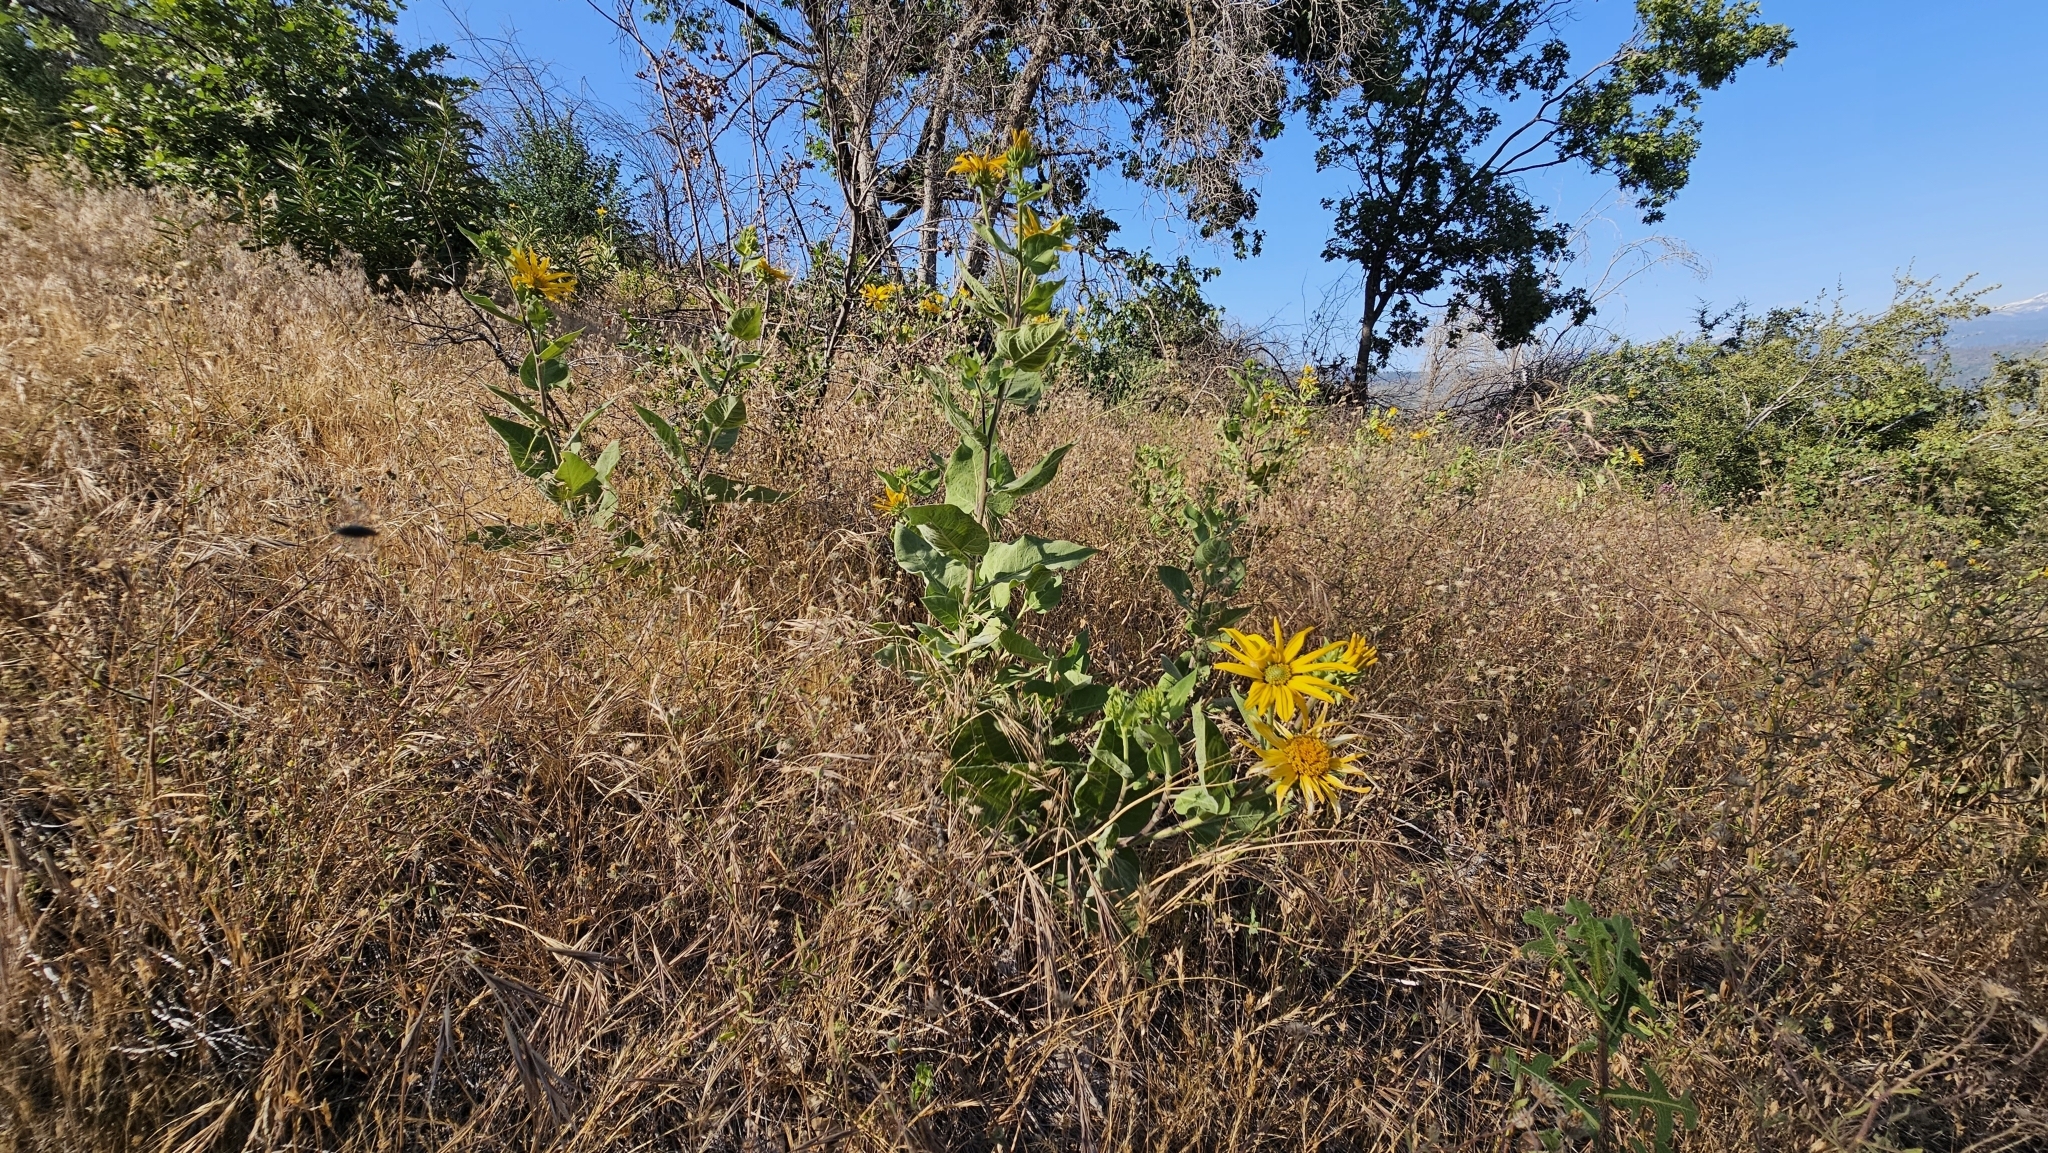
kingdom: Plantae
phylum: Tracheophyta
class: Magnoliopsida
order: Asterales
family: Asteraceae
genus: Agnorhiza
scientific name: Agnorhiza elata
